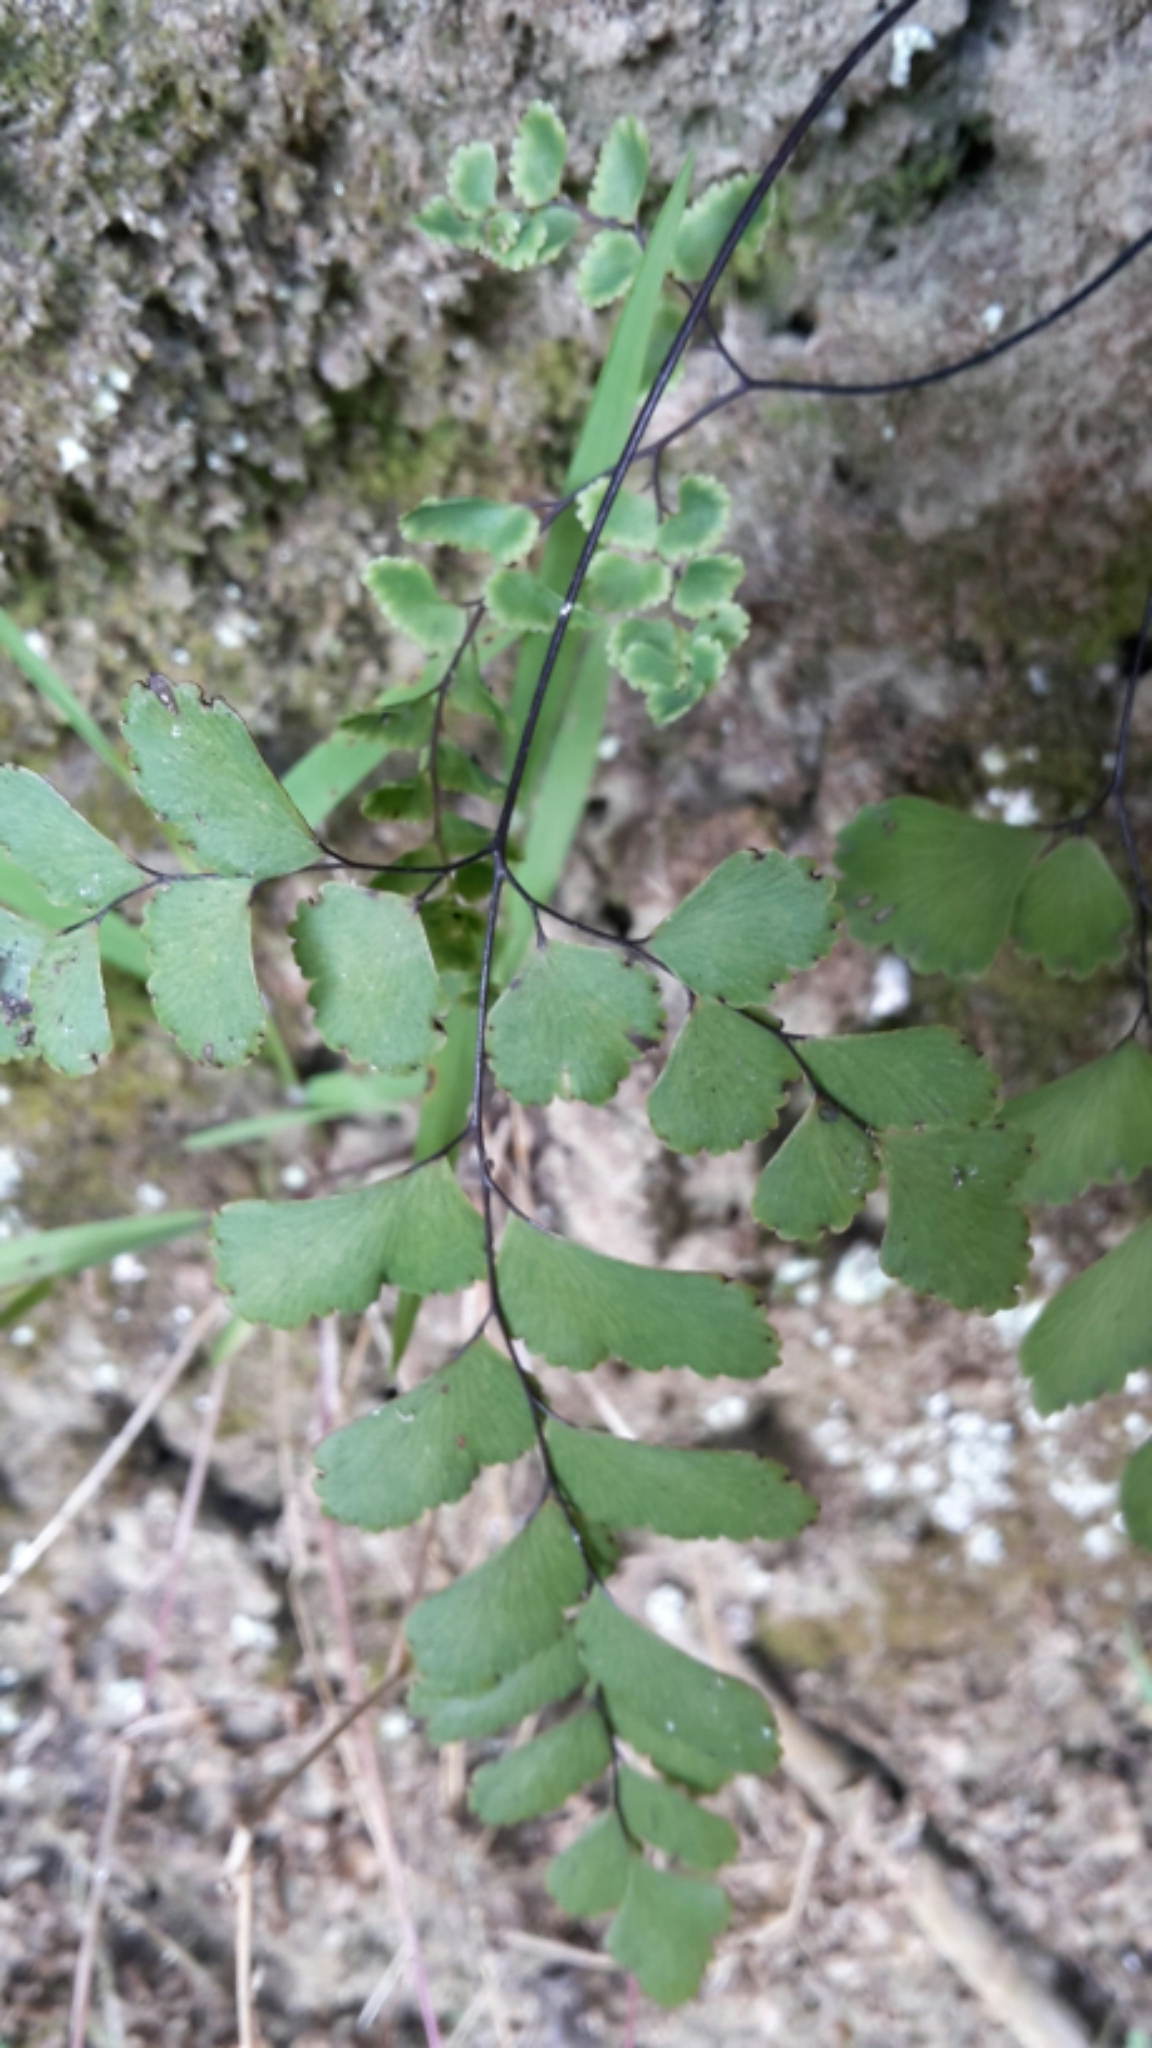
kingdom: Plantae
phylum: Tracheophyta
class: Polypodiopsida
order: Polypodiales
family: Pteridaceae
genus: Adiantum
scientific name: Adiantum cunninghamii
